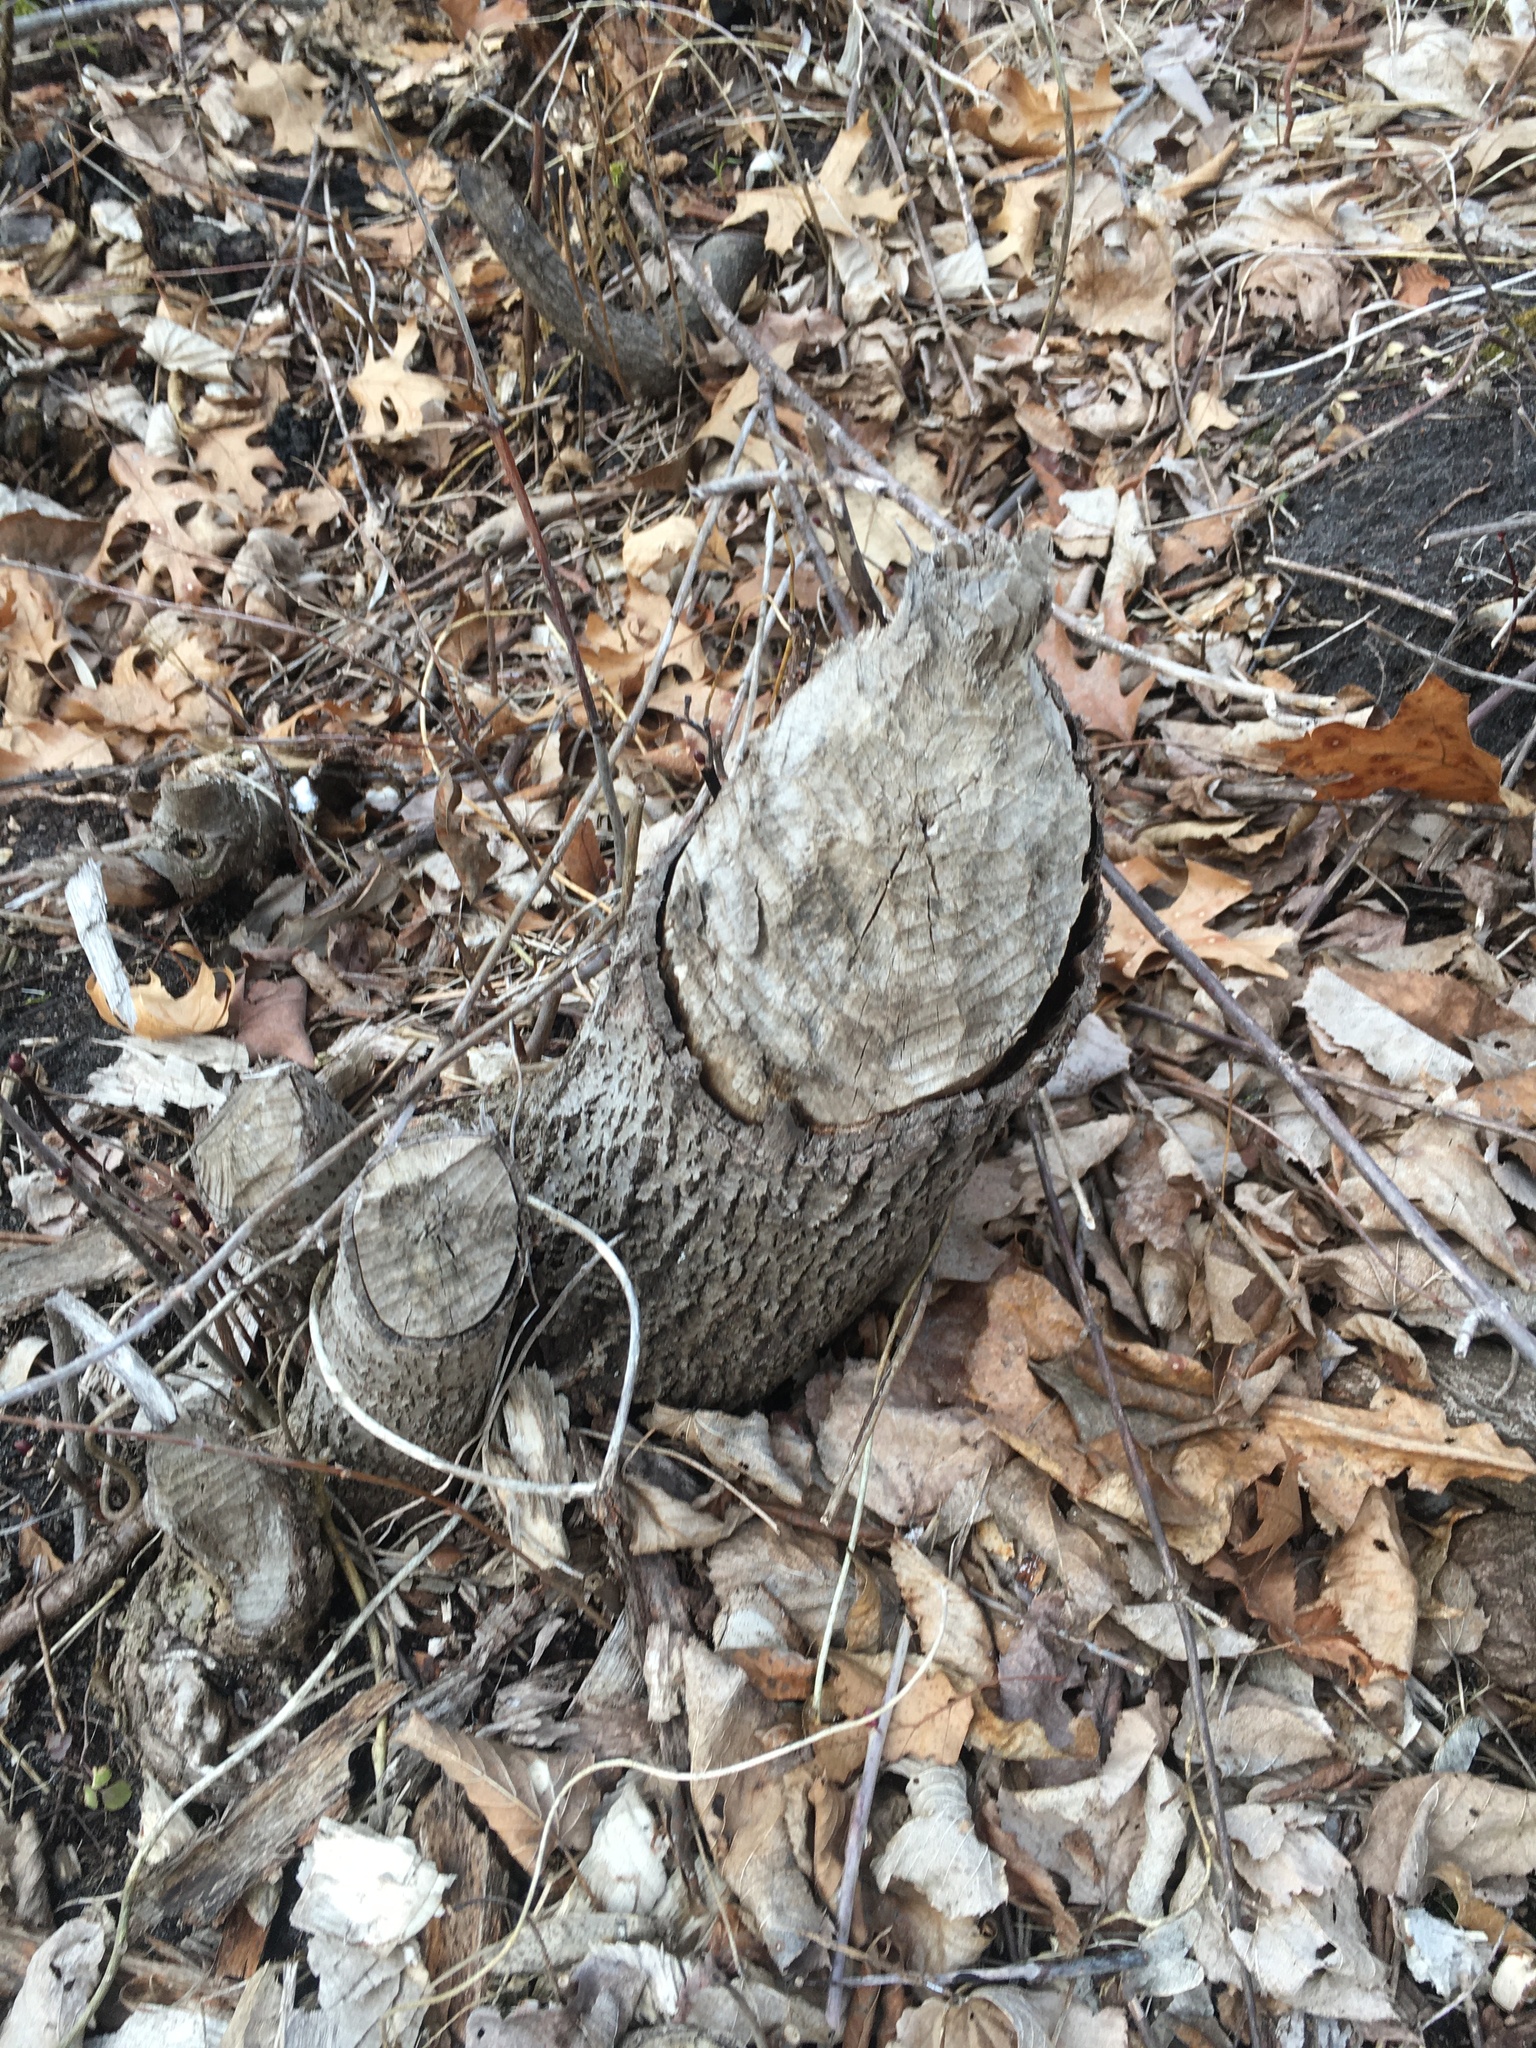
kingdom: Animalia
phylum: Chordata
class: Mammalia
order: Rodentia
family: Castoridae
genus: Castor
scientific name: Castor canadensis
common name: American beaver
